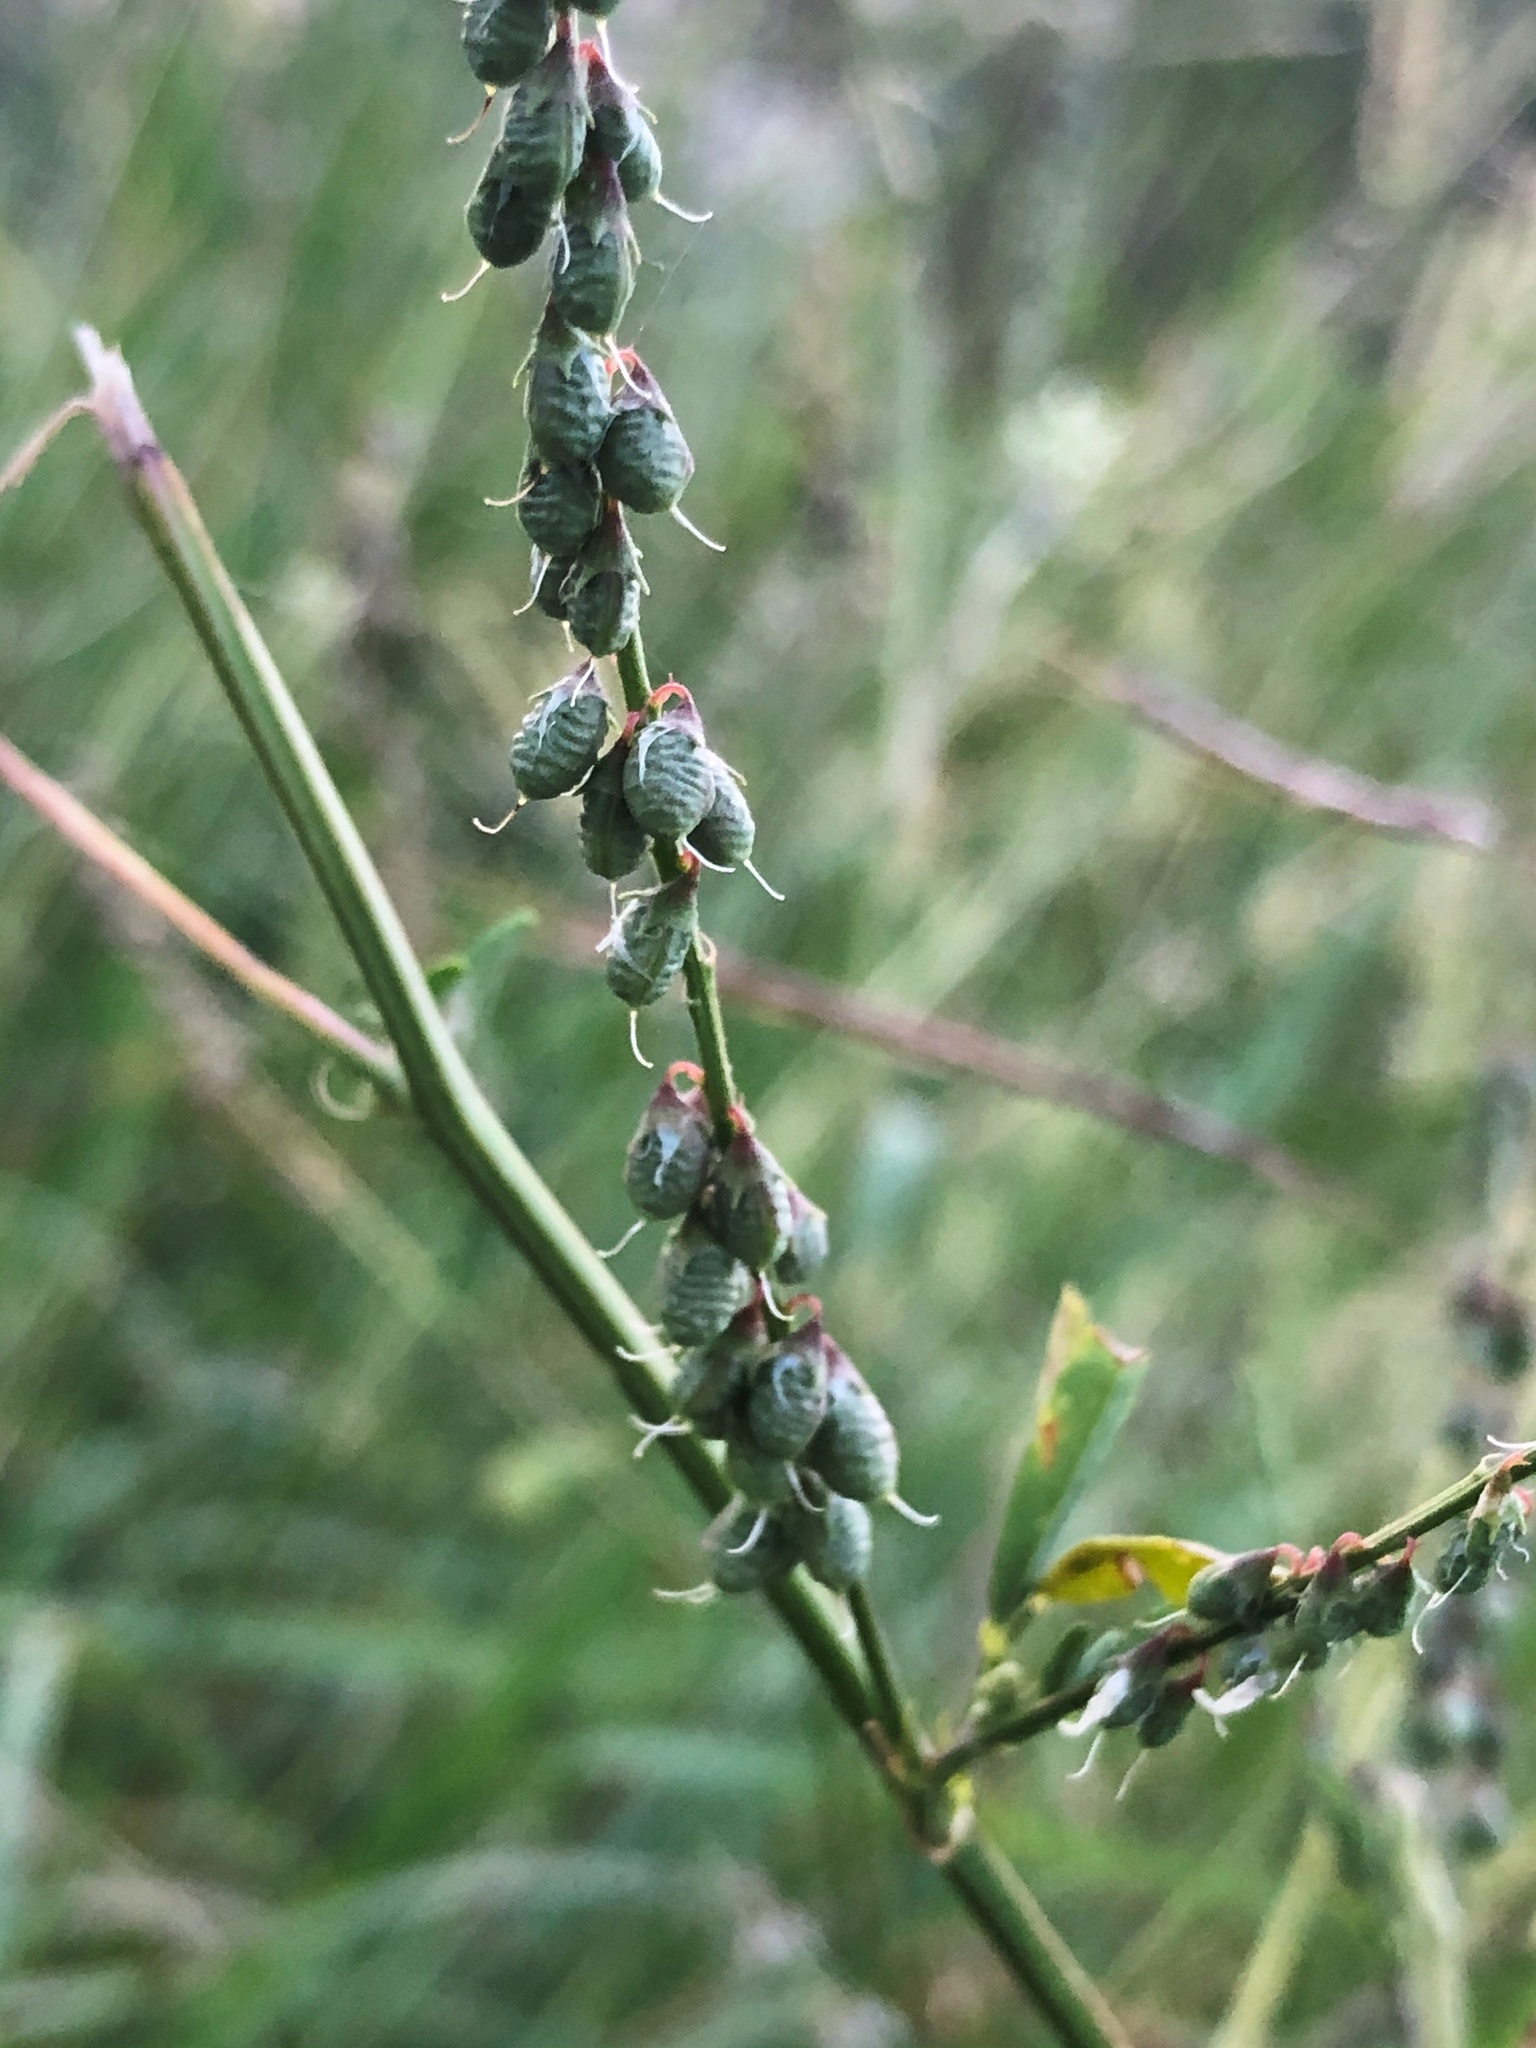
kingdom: Plantae
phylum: Tracheophyta
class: Magnoliopsida
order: Fabales
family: Fabaceae
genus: Melilotus
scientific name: Melilotus albus
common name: White melilot
